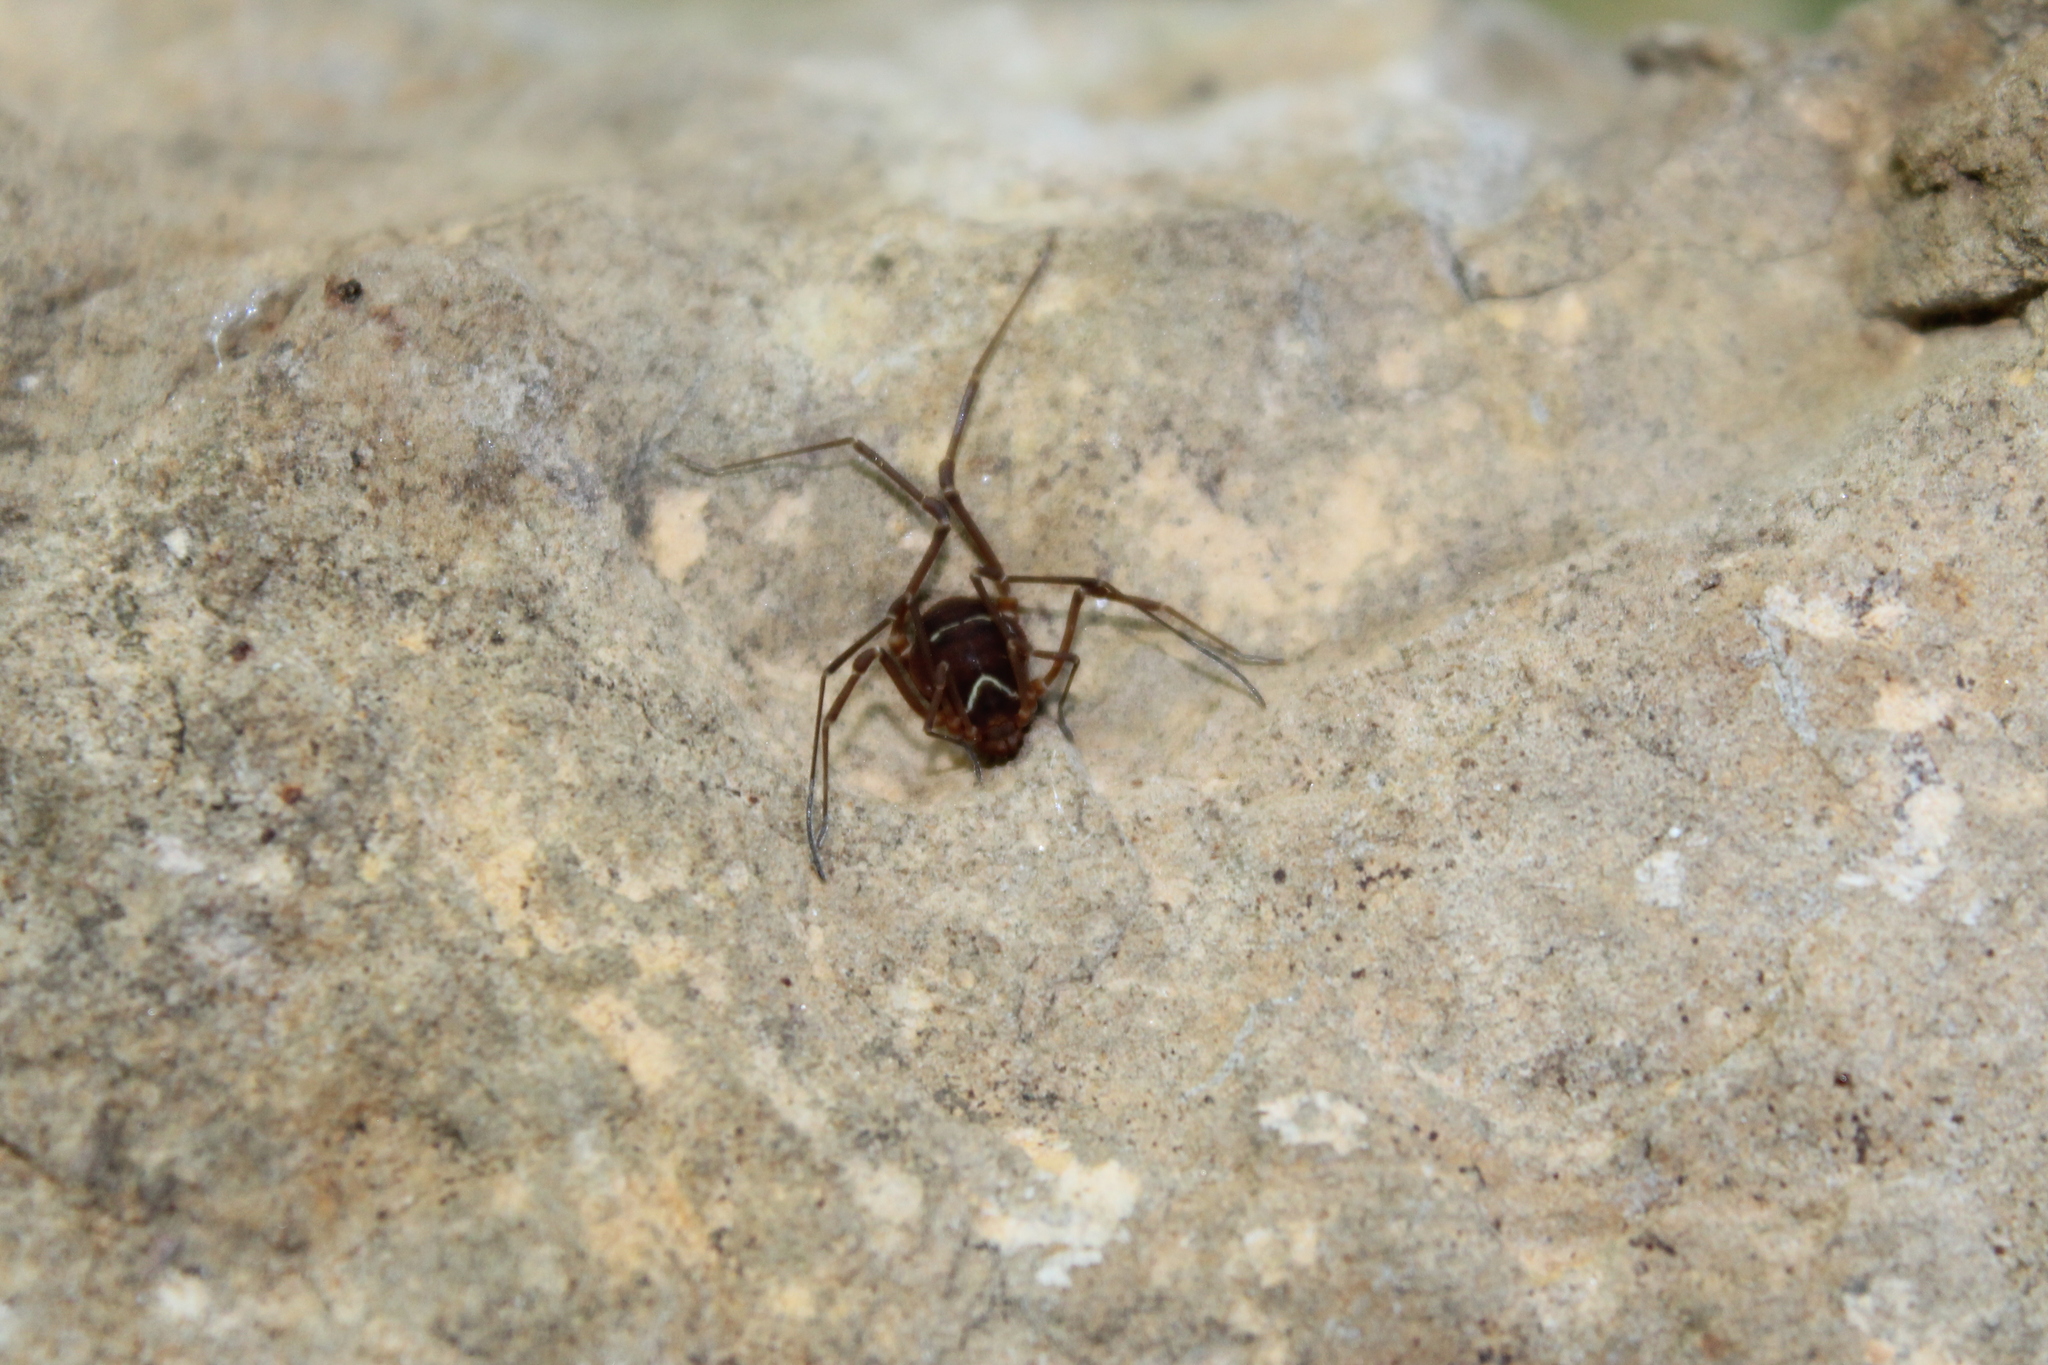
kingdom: Animalia
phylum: Arthropoda
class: Arachnida
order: Opiliones
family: Cosmetidae
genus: Libitioides
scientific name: Libitioides sayi
